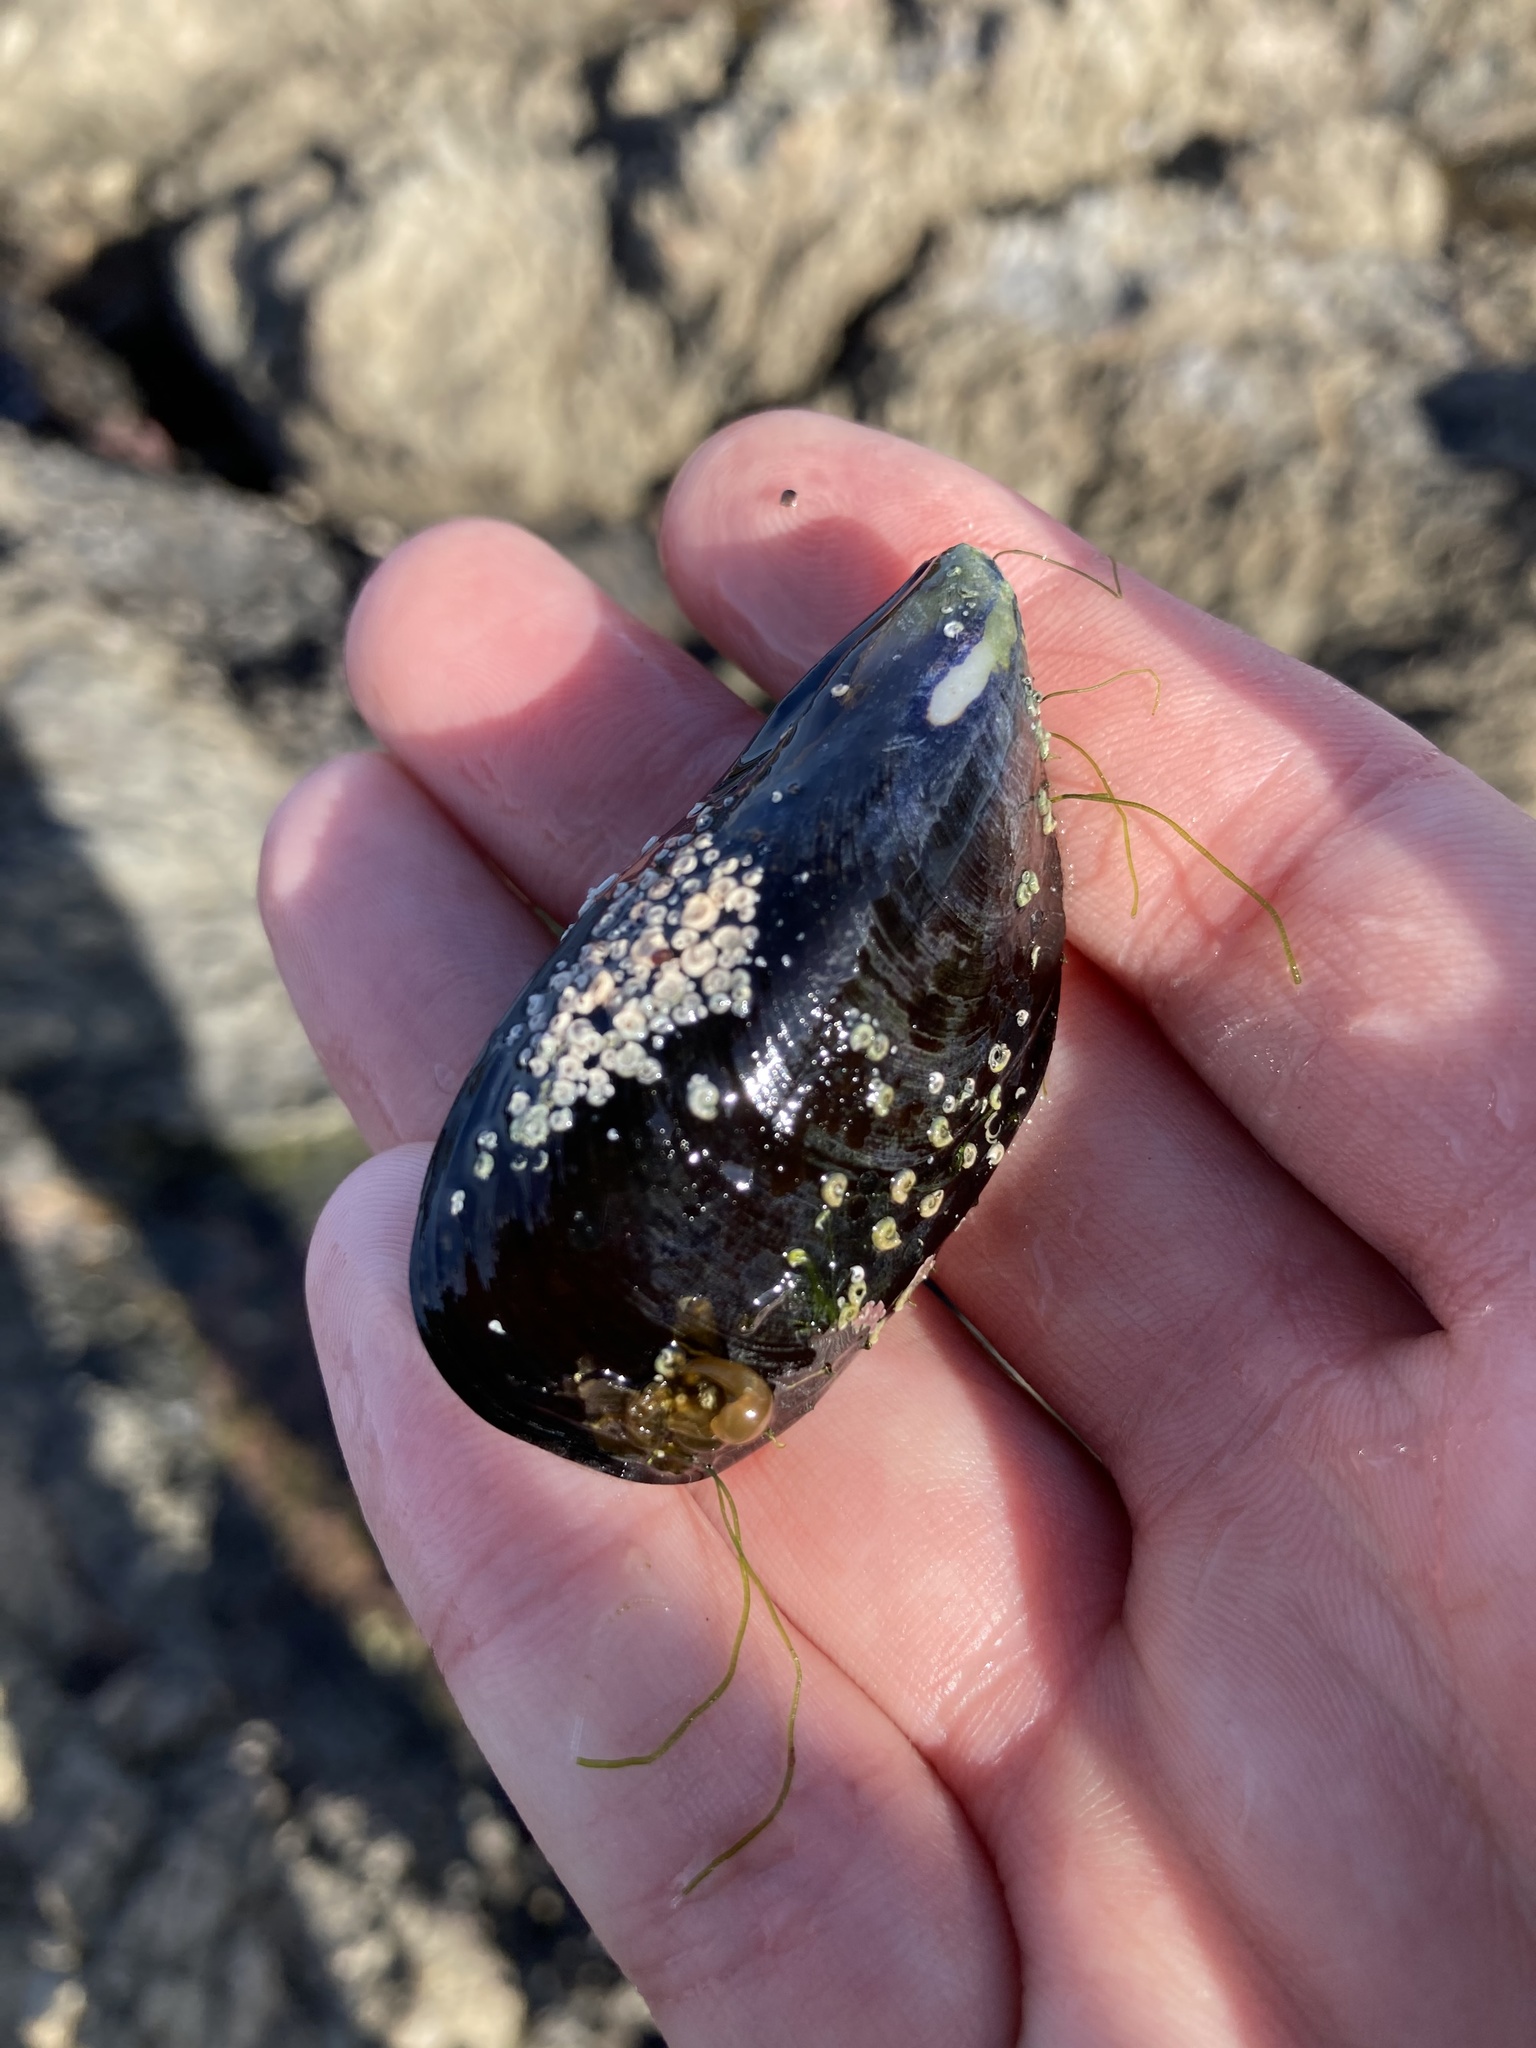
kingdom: Animalia
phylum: Mollusca
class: Bivalvia
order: Mytilida
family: Mytilidae
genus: Mytilus
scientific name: Mytilus planulatus
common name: Australian mussel
